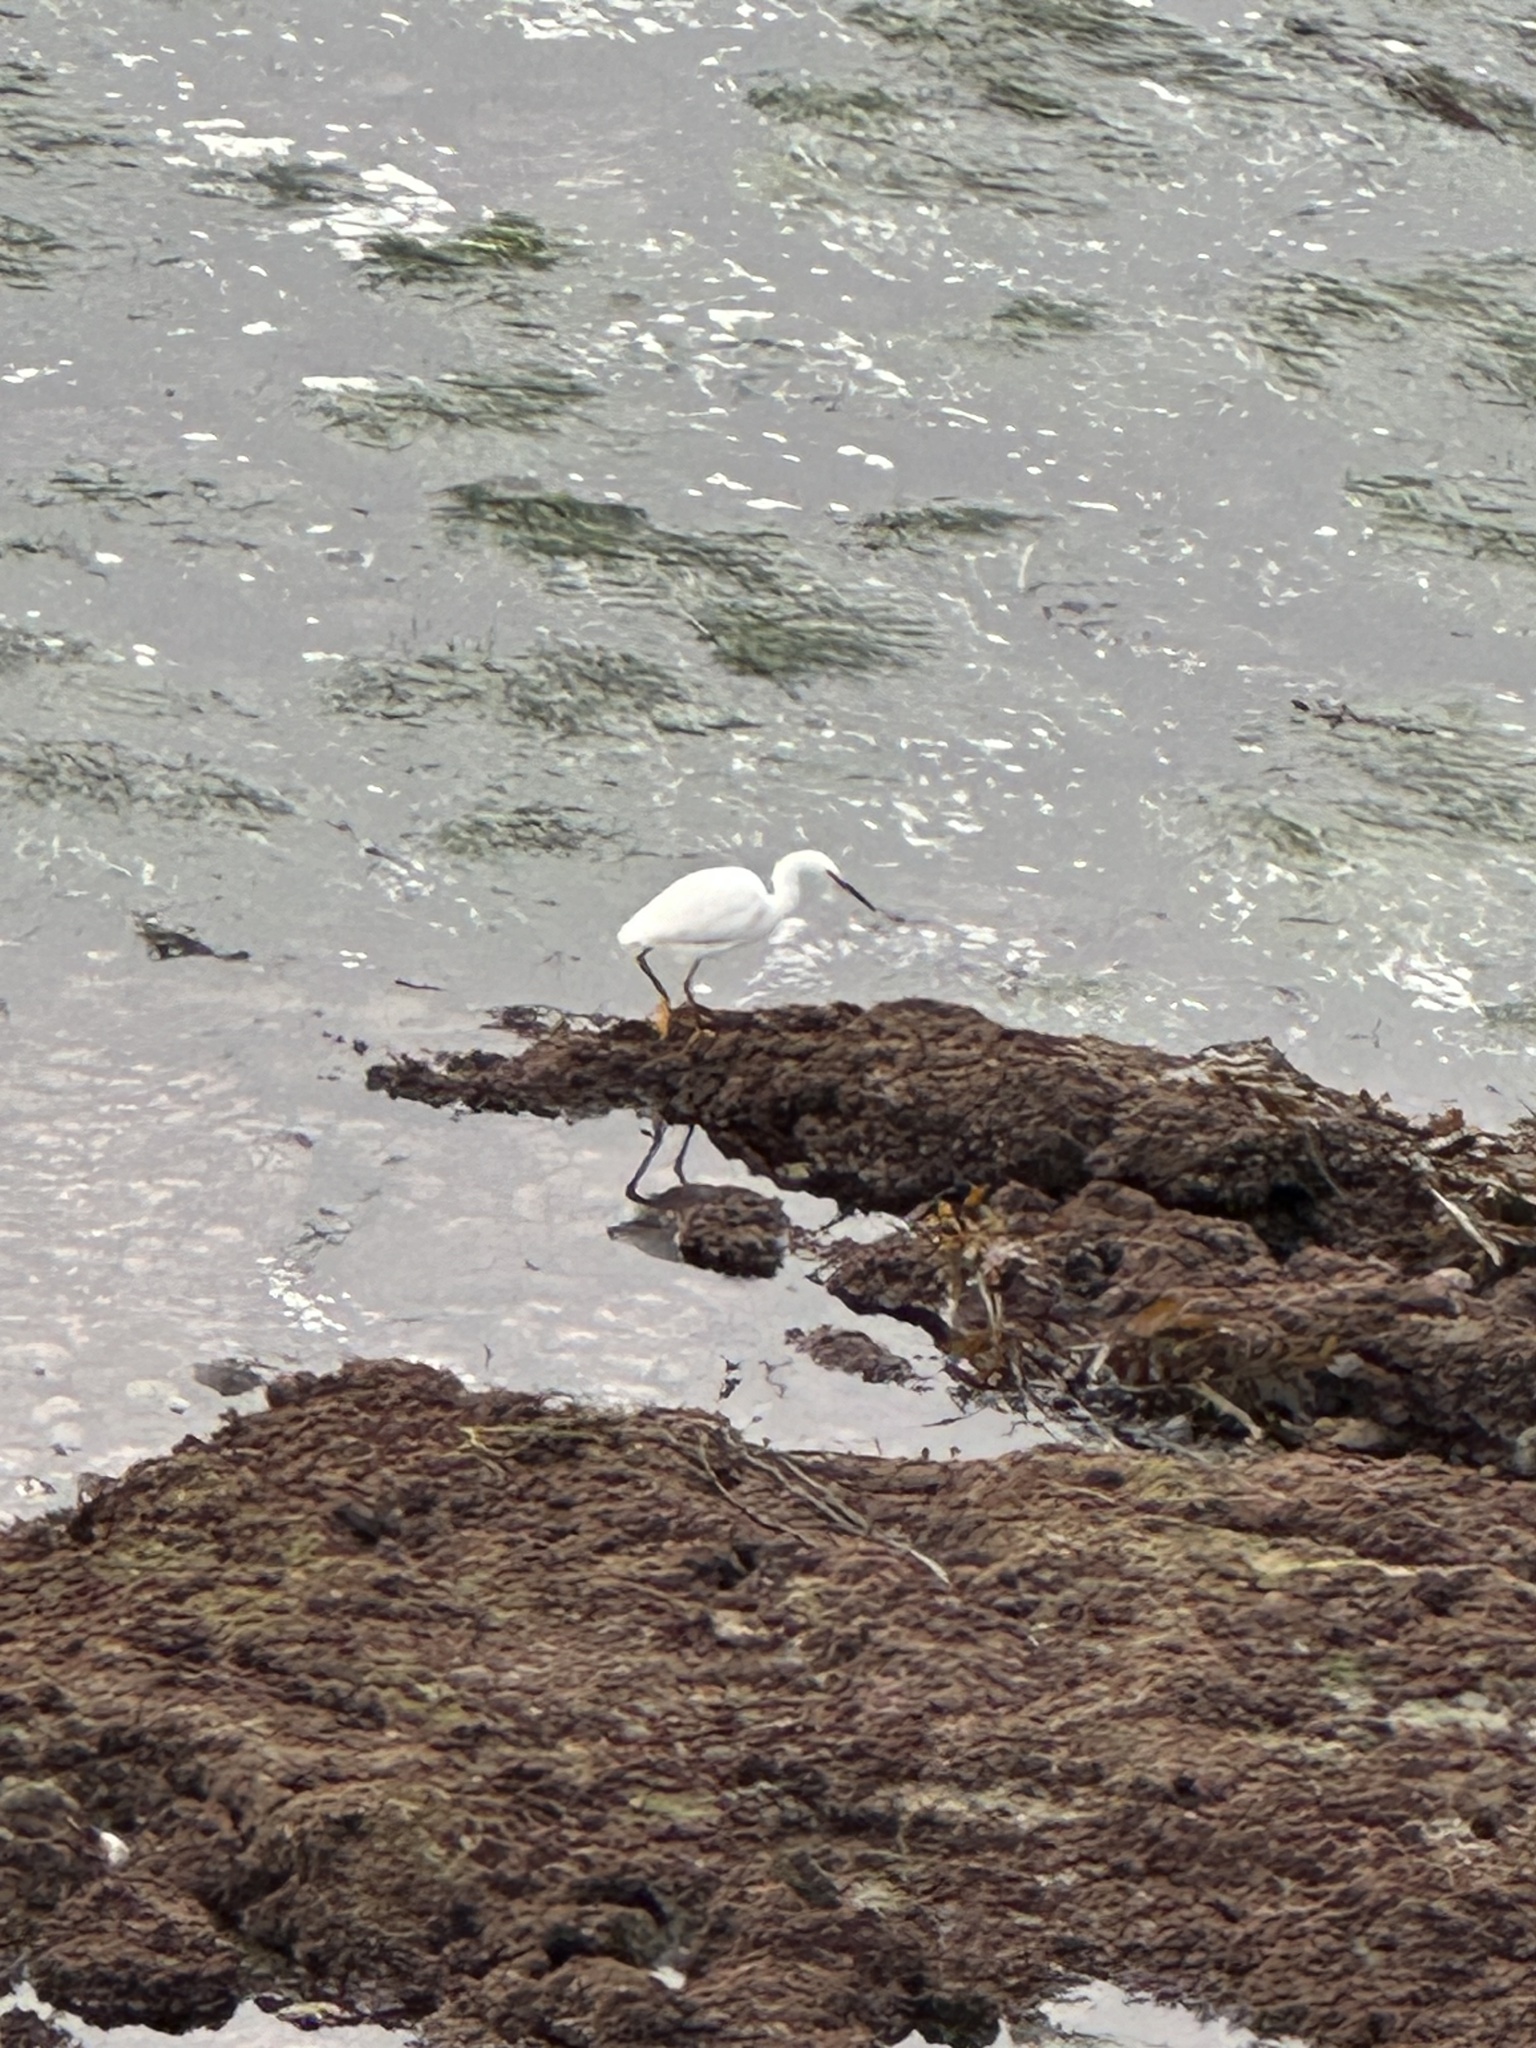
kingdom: Animalia
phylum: Chordata
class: Aves
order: Pelecaniformes
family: Ardeidae
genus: Egretta
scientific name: Egretta thula
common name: Snowy egret
